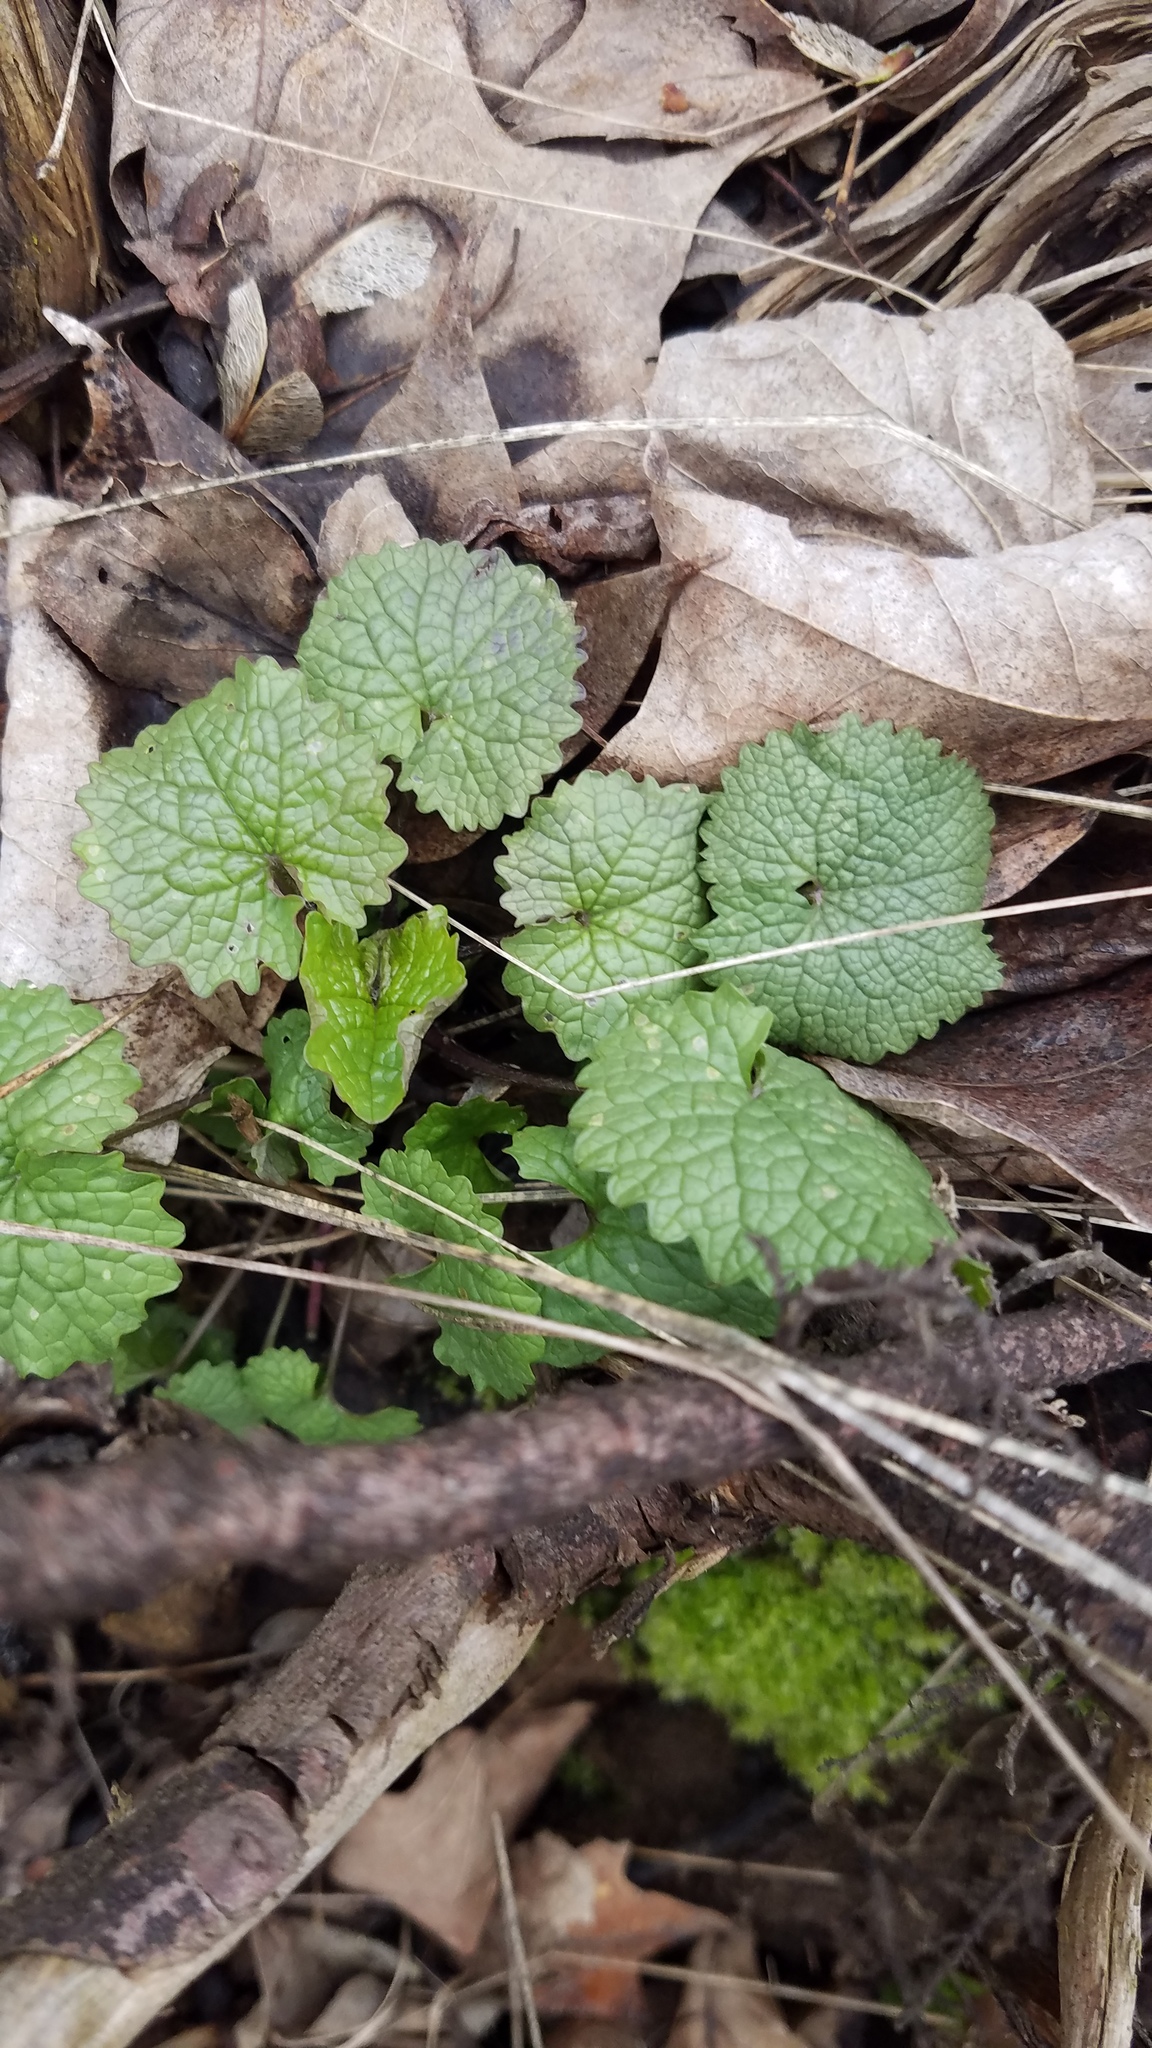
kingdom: Plantae
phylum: Tracheophyta
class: Magnoliopsida
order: Brassicales
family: Brassicaceae
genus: Alliaria
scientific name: Alliaria petiolata
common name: Garlic mustard
